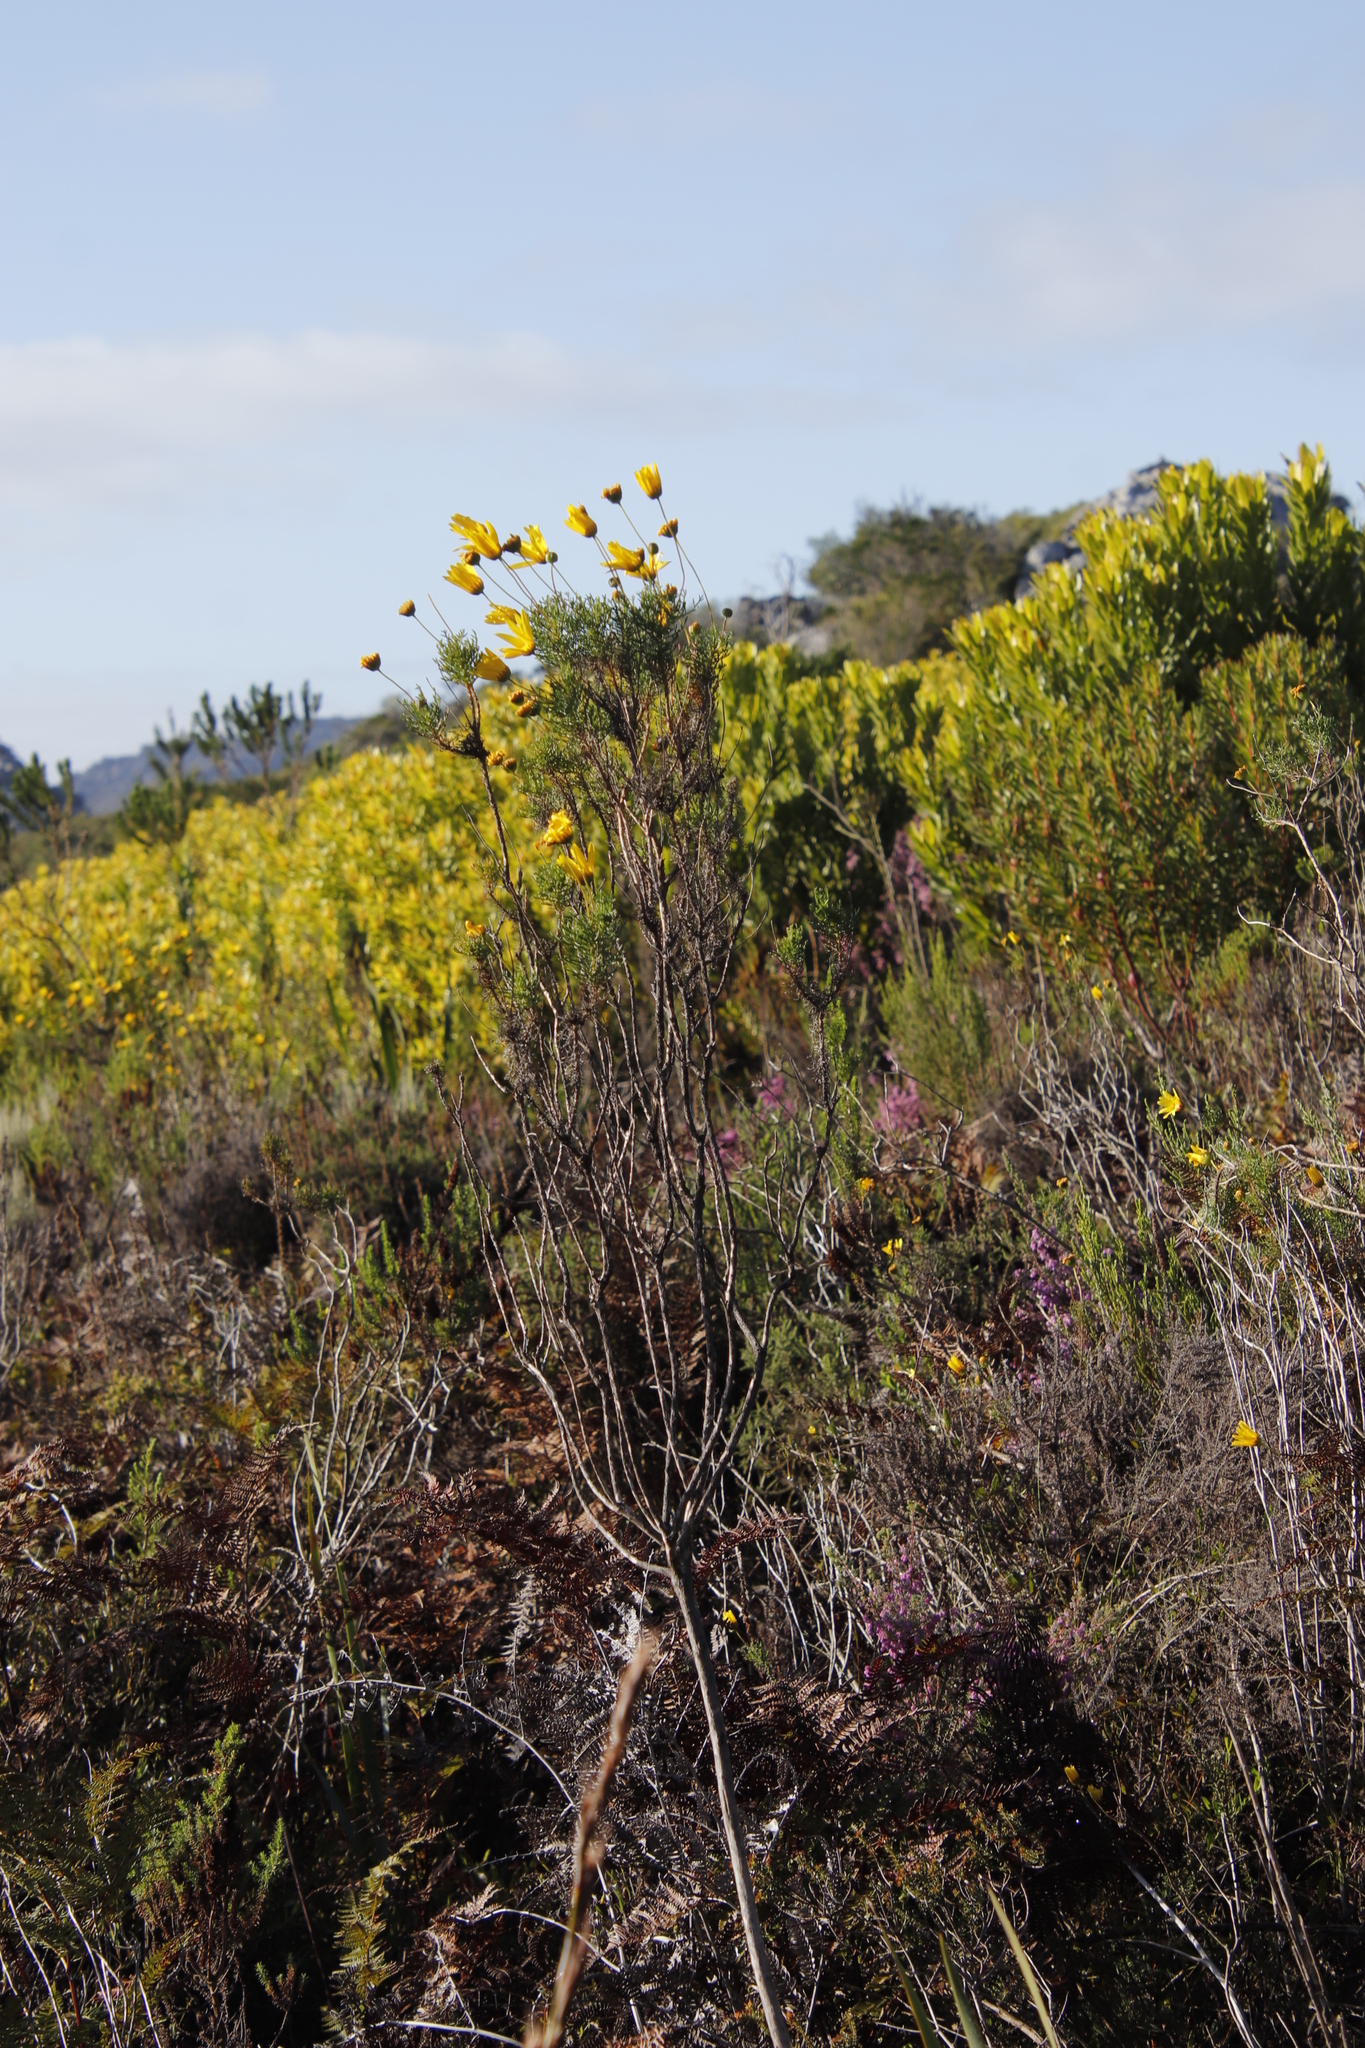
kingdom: Plantae
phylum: Tracheophyta
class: Magnoliopsida
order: Asterales
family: Asteraceae
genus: Euryops
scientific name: Euryops abrotanifolius
